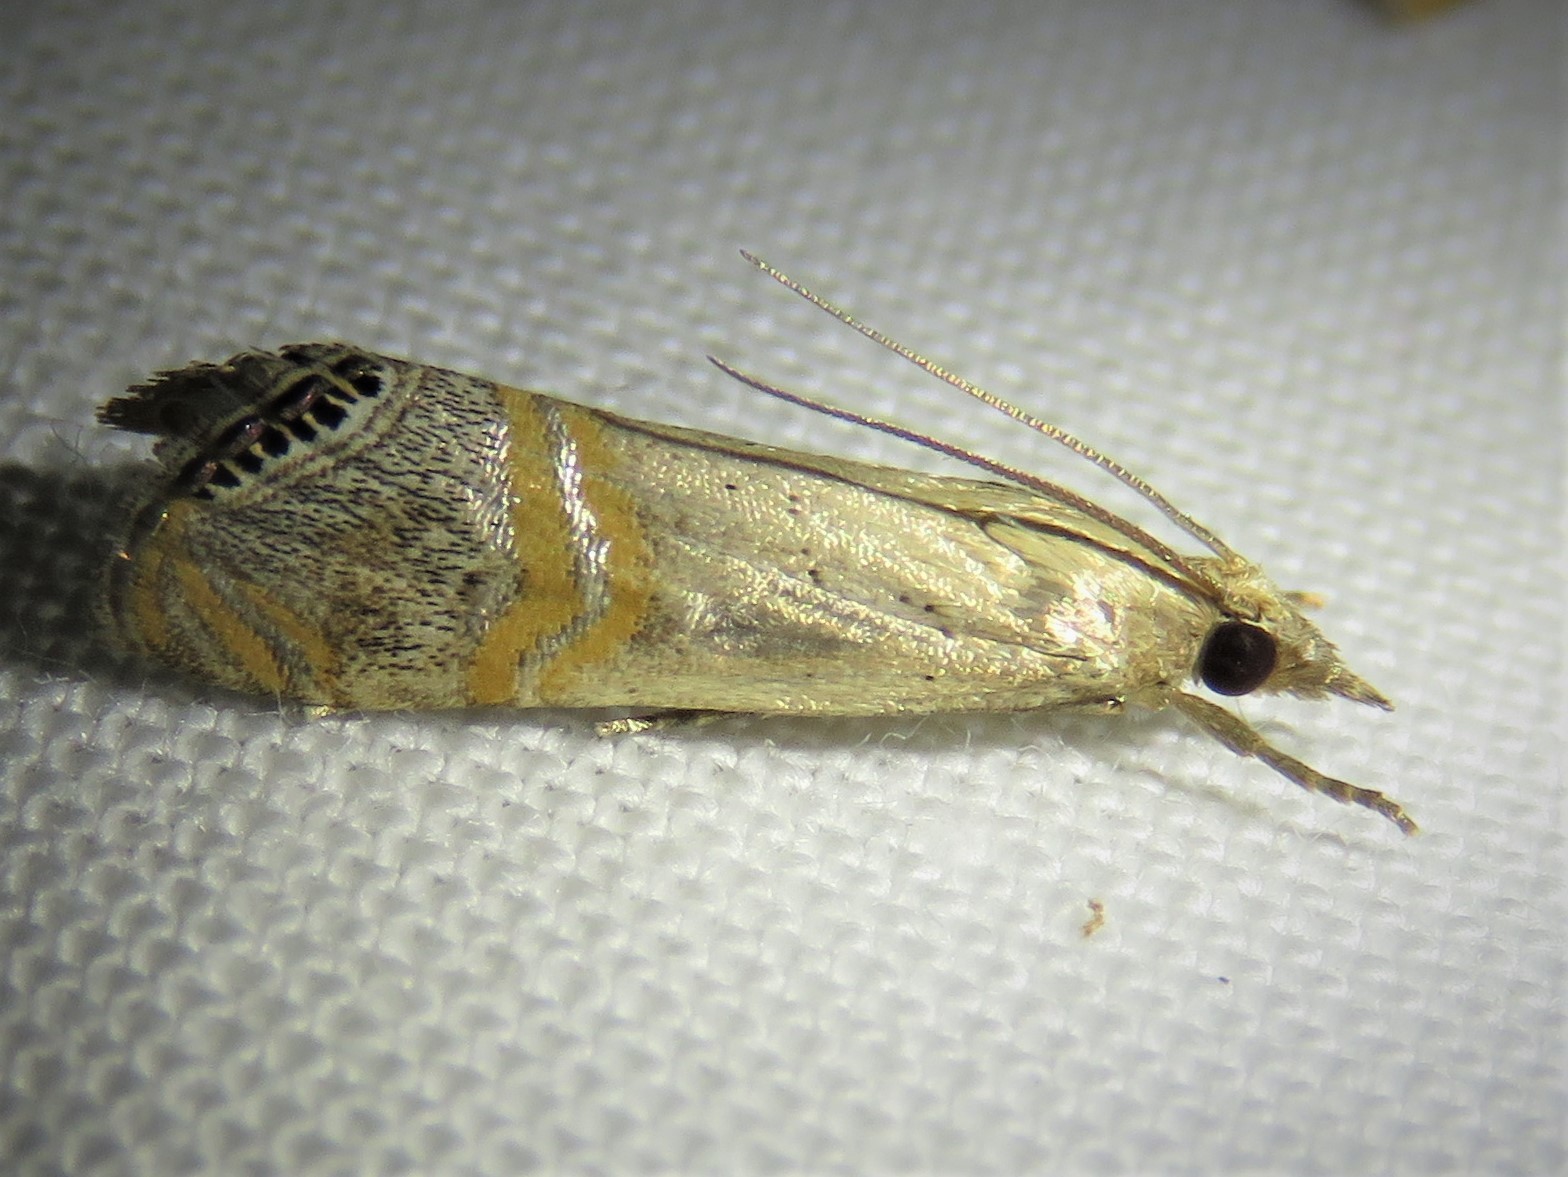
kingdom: Animalia
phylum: Arthropoda
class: Insecta
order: Lepidoptera
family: Crambidae
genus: Euchromius
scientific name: Euchromius ocellea
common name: Necklace veneer moth
